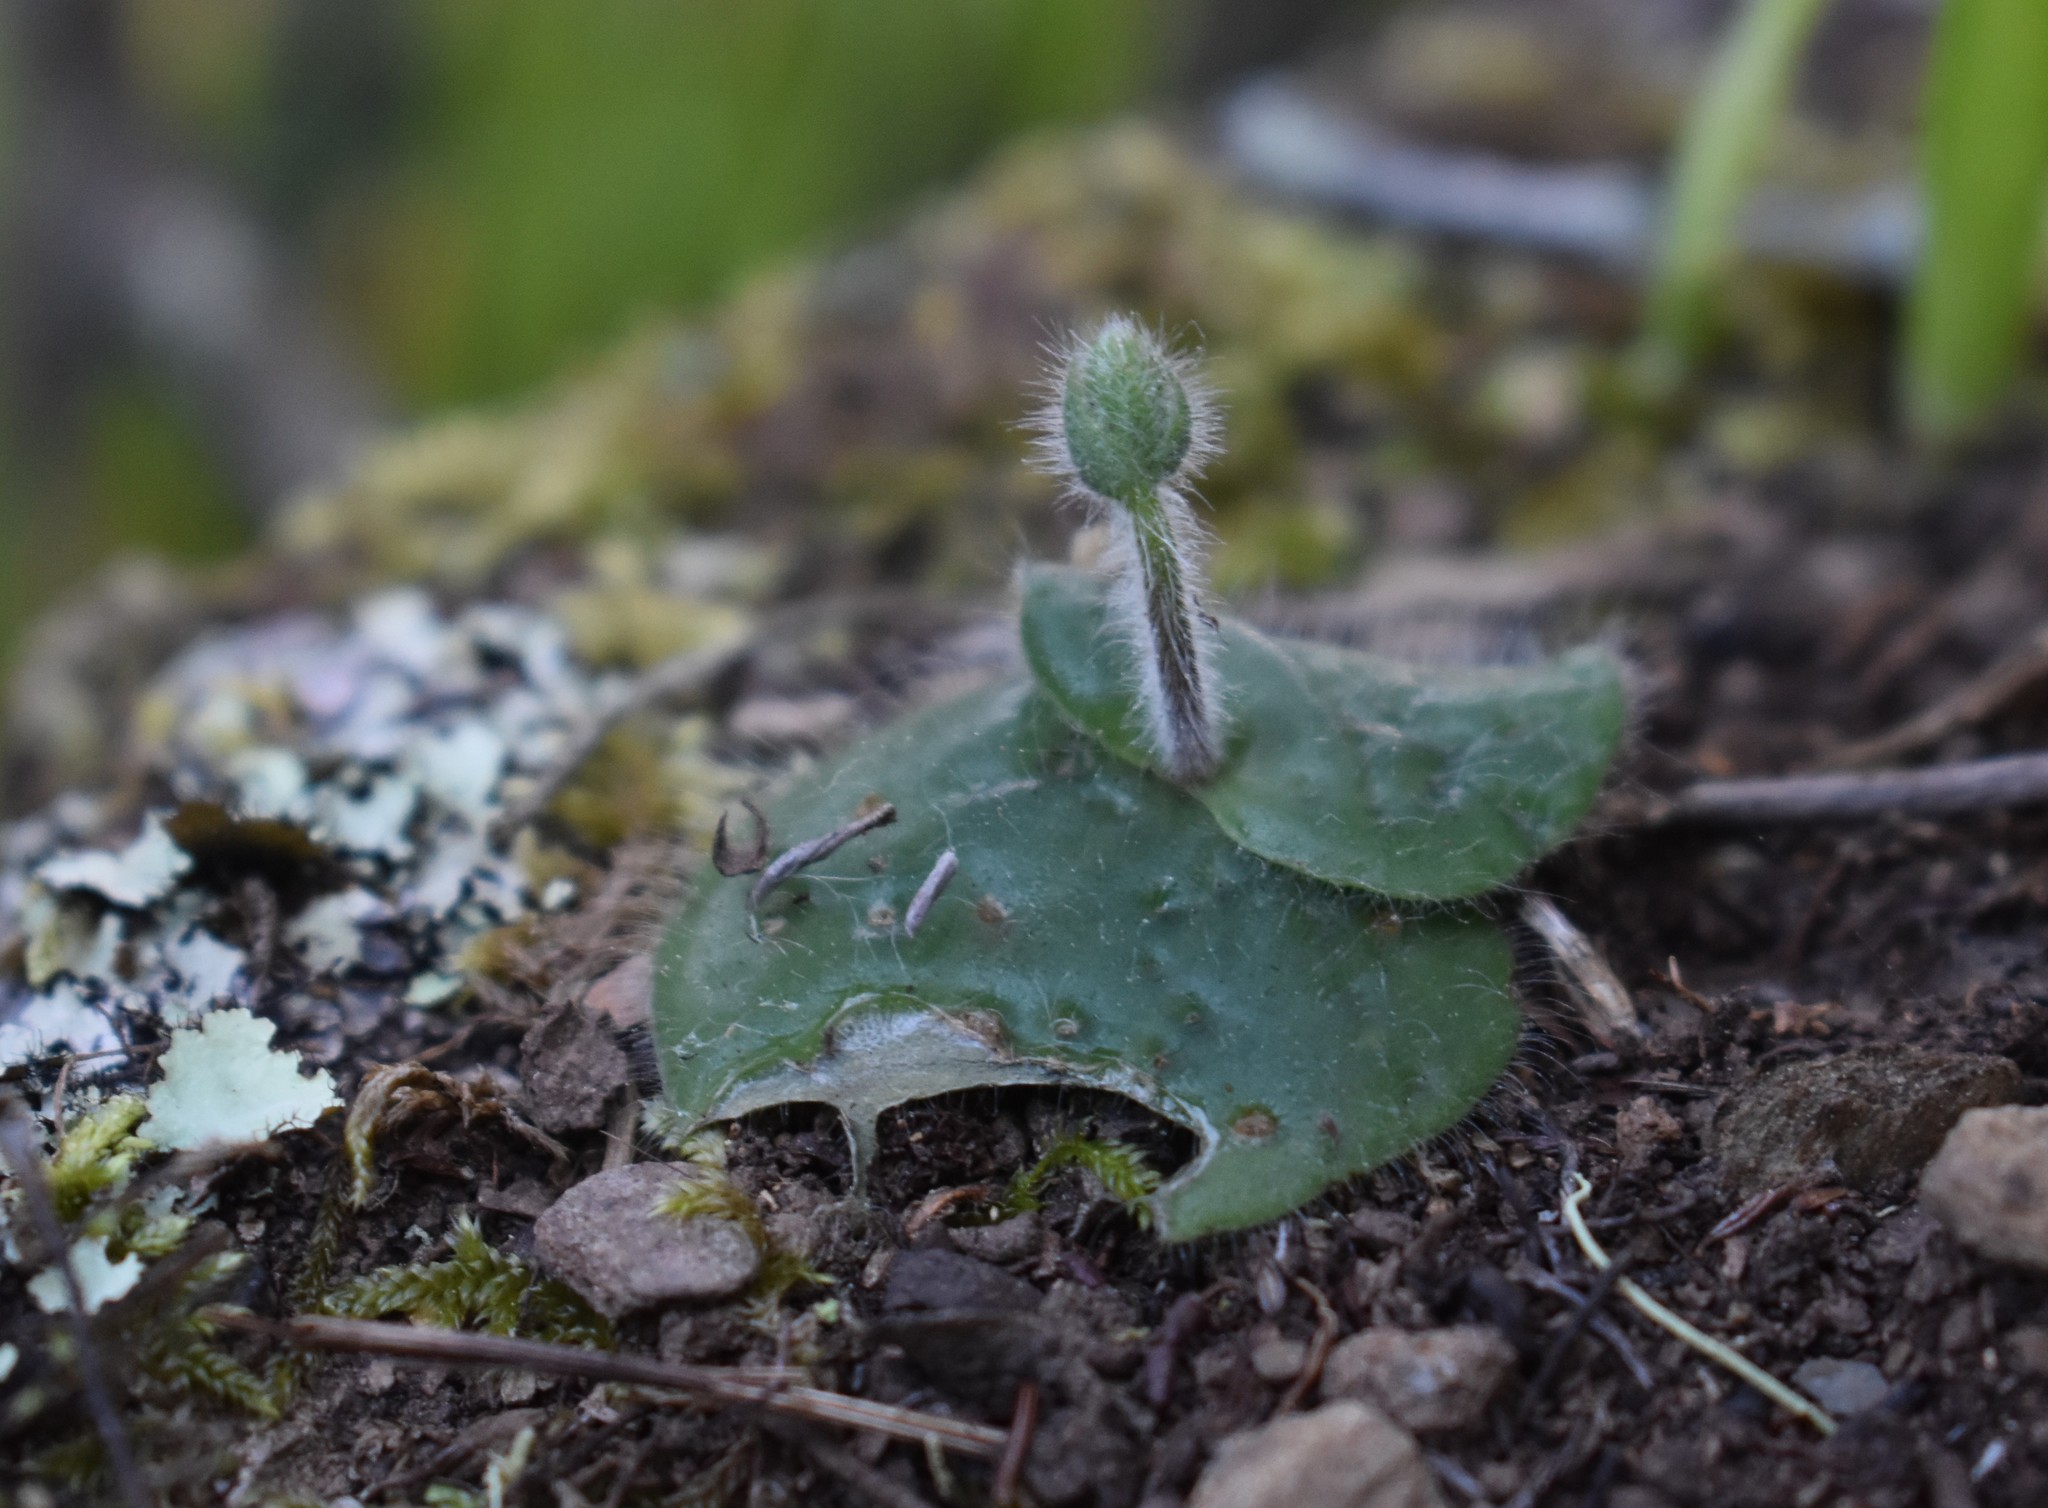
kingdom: Plantae
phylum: Tracheophyta
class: Liliopsida
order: Asparagales
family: Orchidaceae
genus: Holothrix
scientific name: Holothrix villosa
